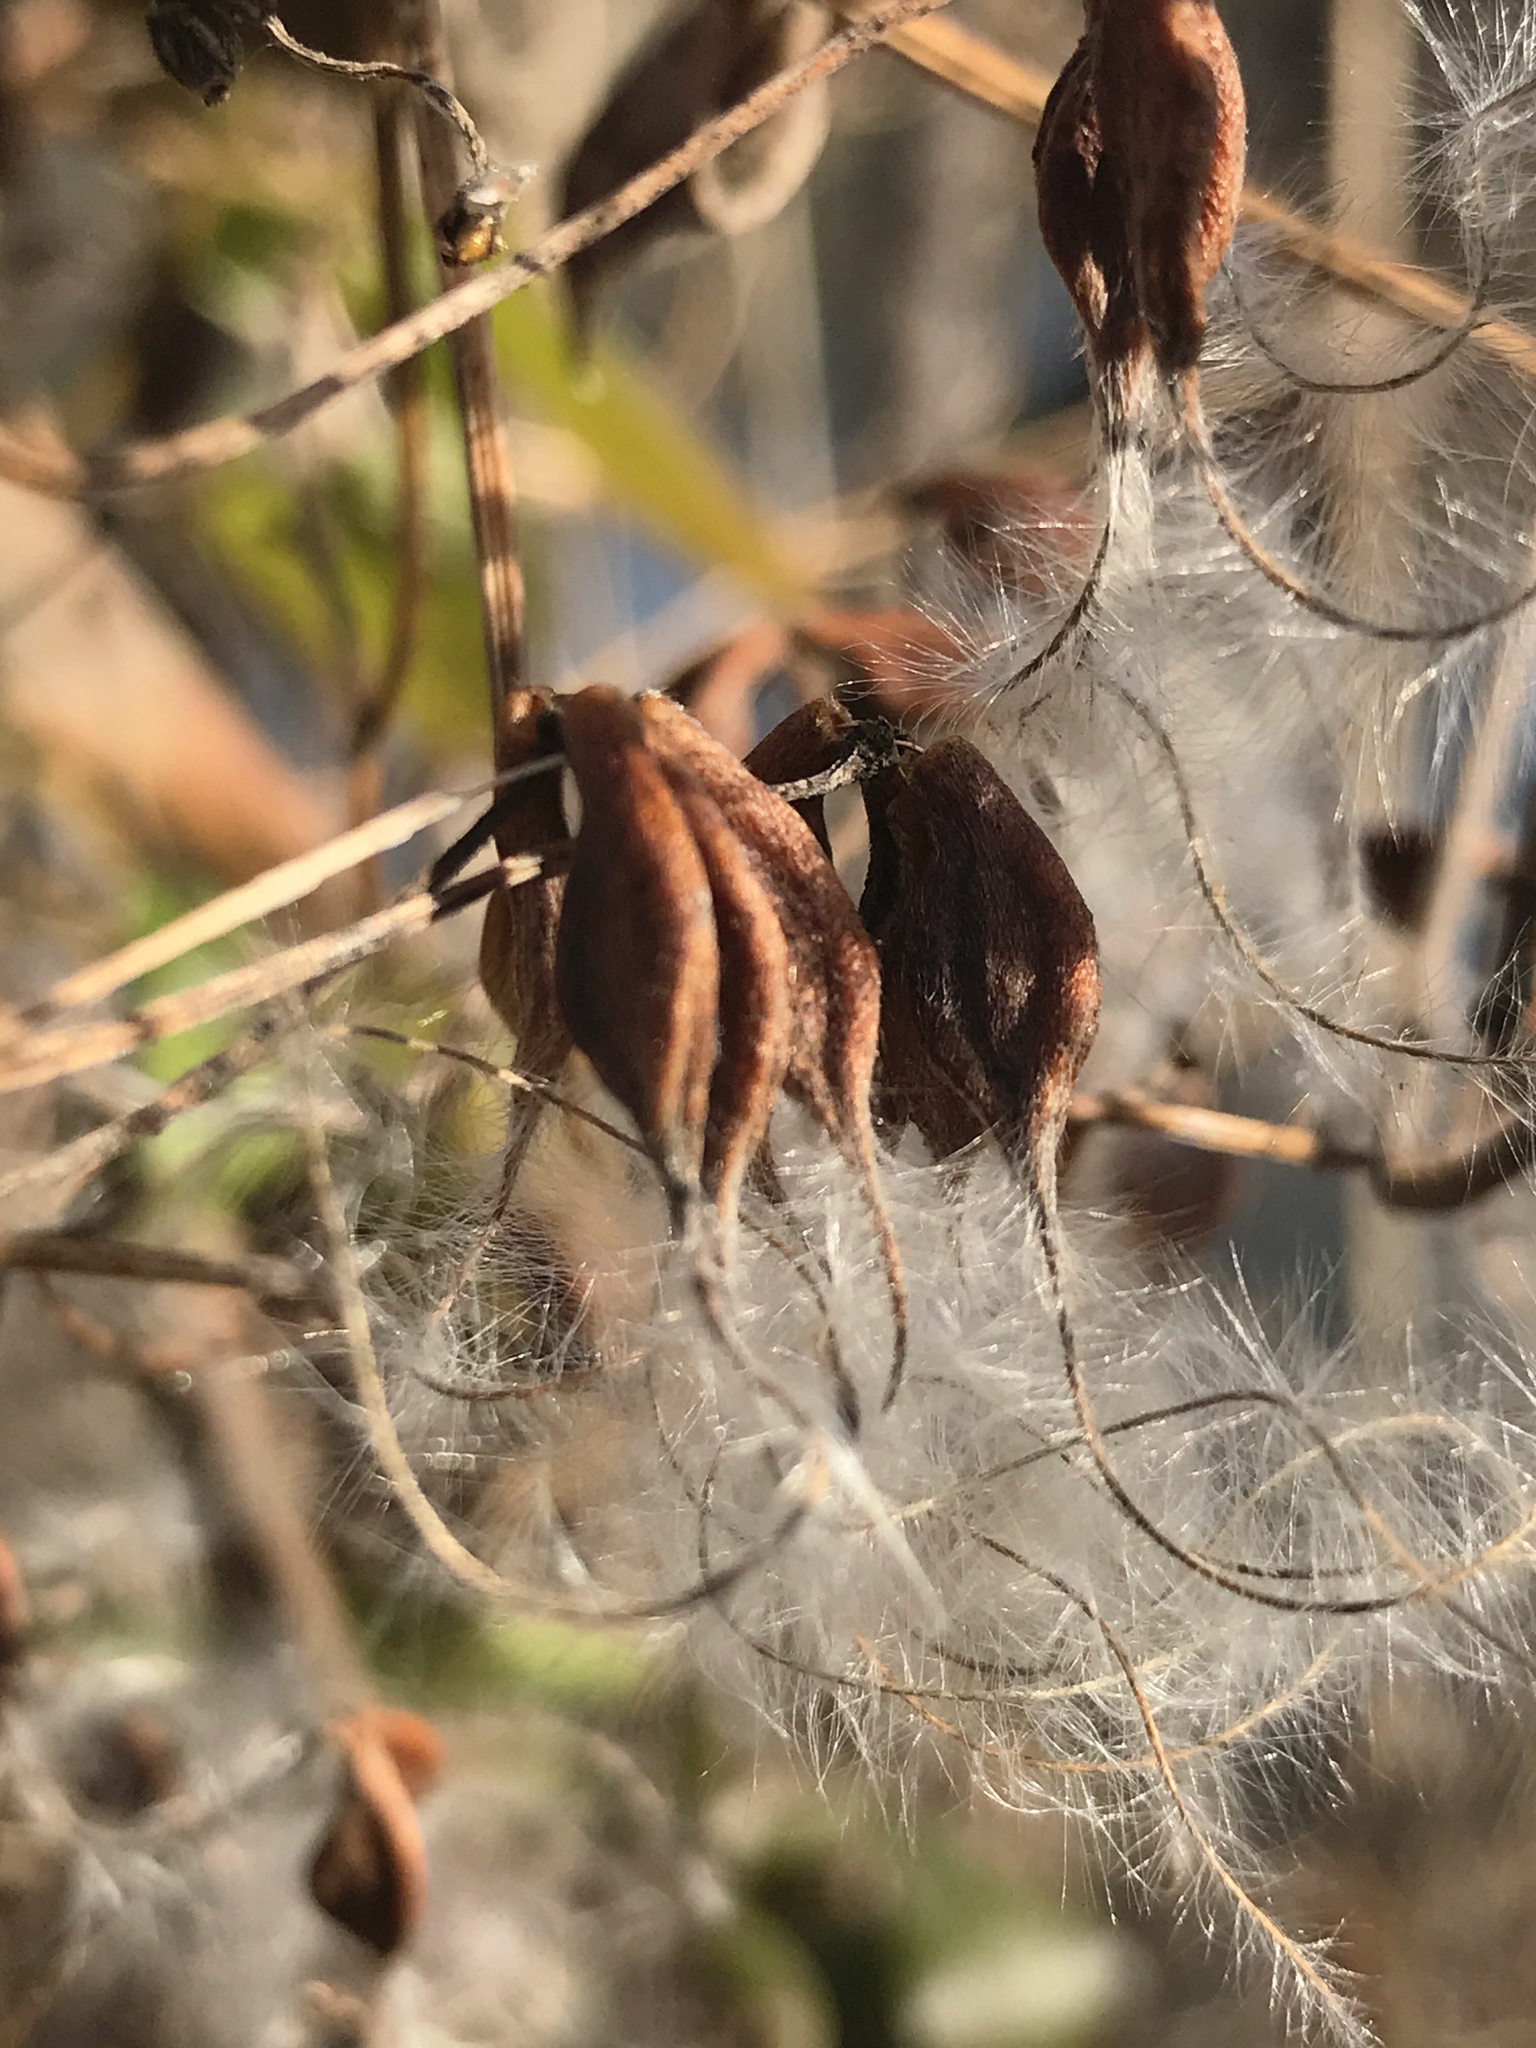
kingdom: Plantae
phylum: Tracheophyta
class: Magnoliopsida
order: Ranunculales
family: Ranunculaceae
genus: Clematis
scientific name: Clematis terniflora
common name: Sweet autumn clematis
